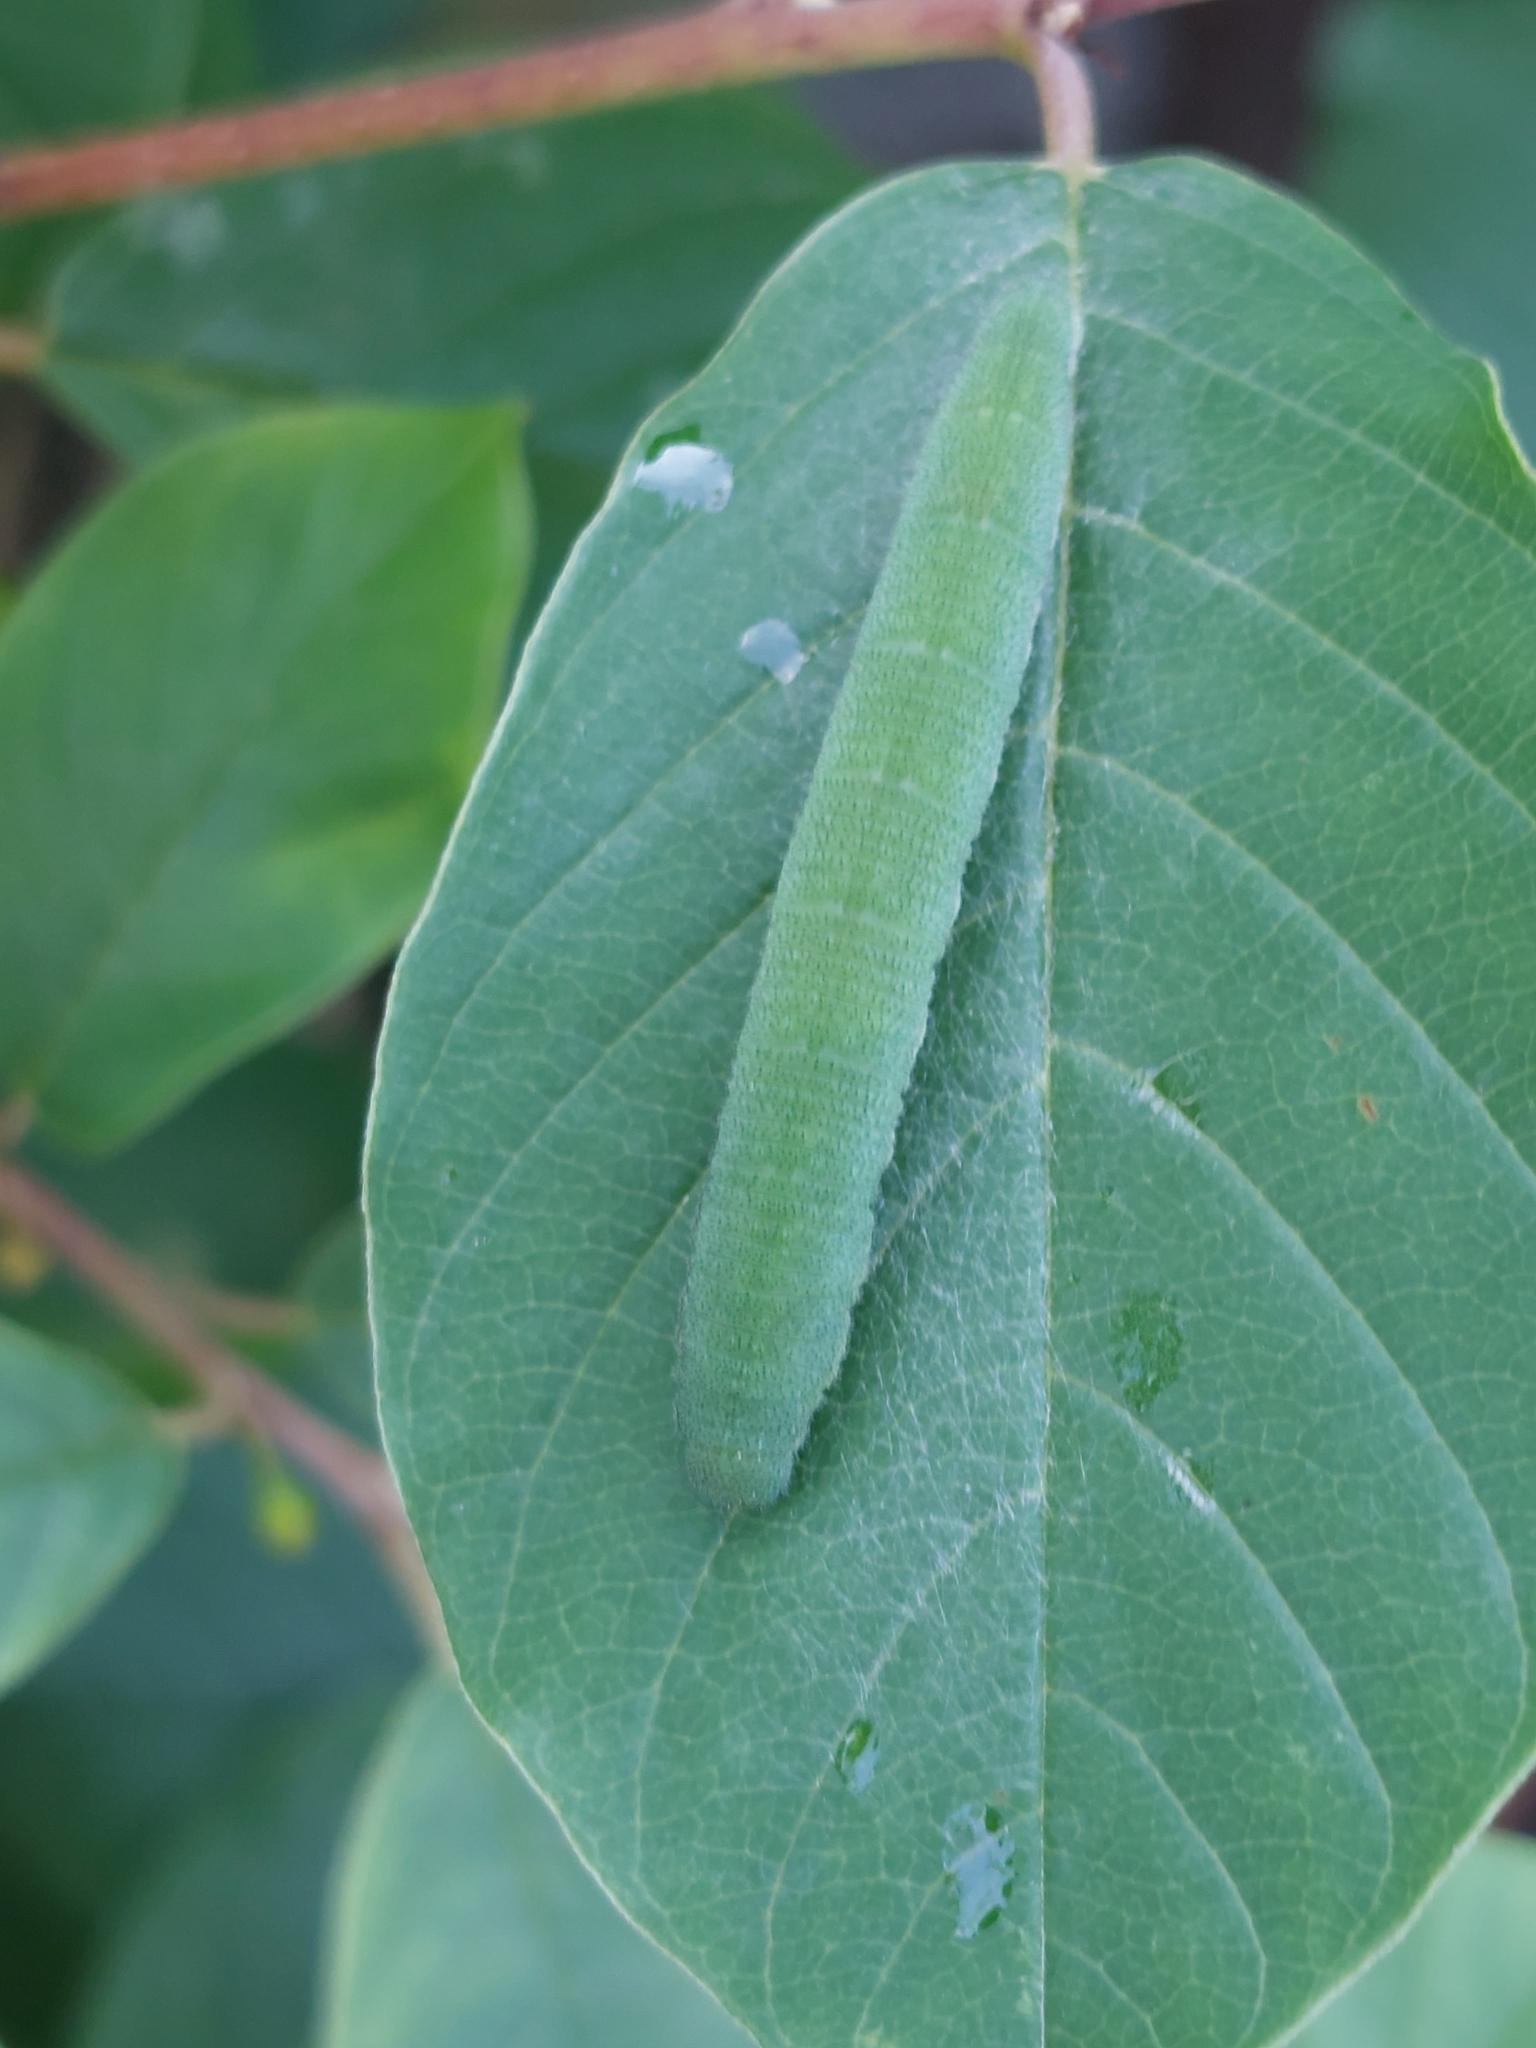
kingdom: Animalia
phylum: Arthropoda
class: Insecta
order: Lepidoptera
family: Pieridae
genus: Gonepteryx
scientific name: Gonepteryx rhamni
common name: Brimstone
